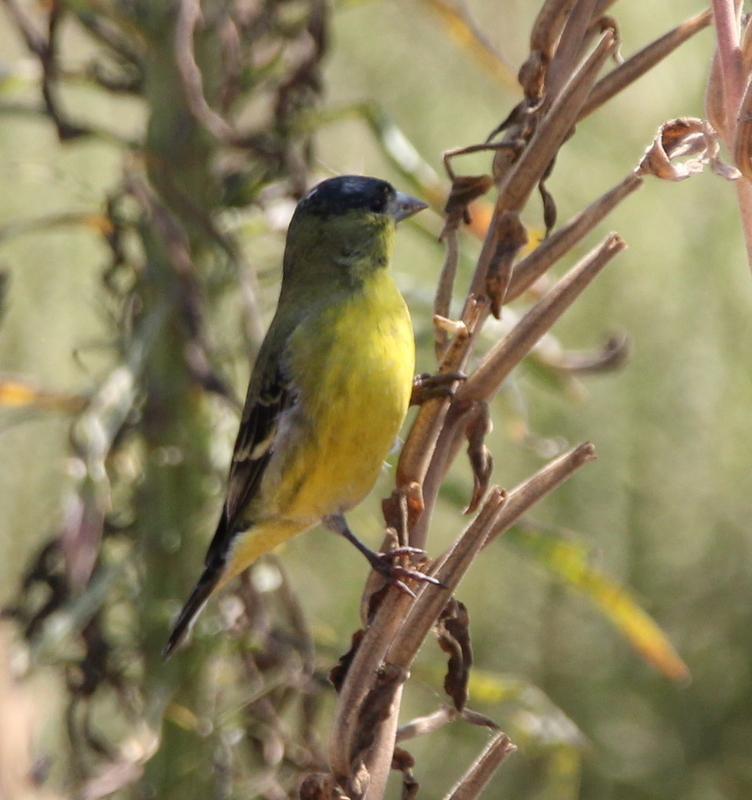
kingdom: Animalia
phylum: Chordata
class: Aves
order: Passeriformes
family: Fringillidae
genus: Spinus
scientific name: Spinus psaltria
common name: Lesser goldfinch
